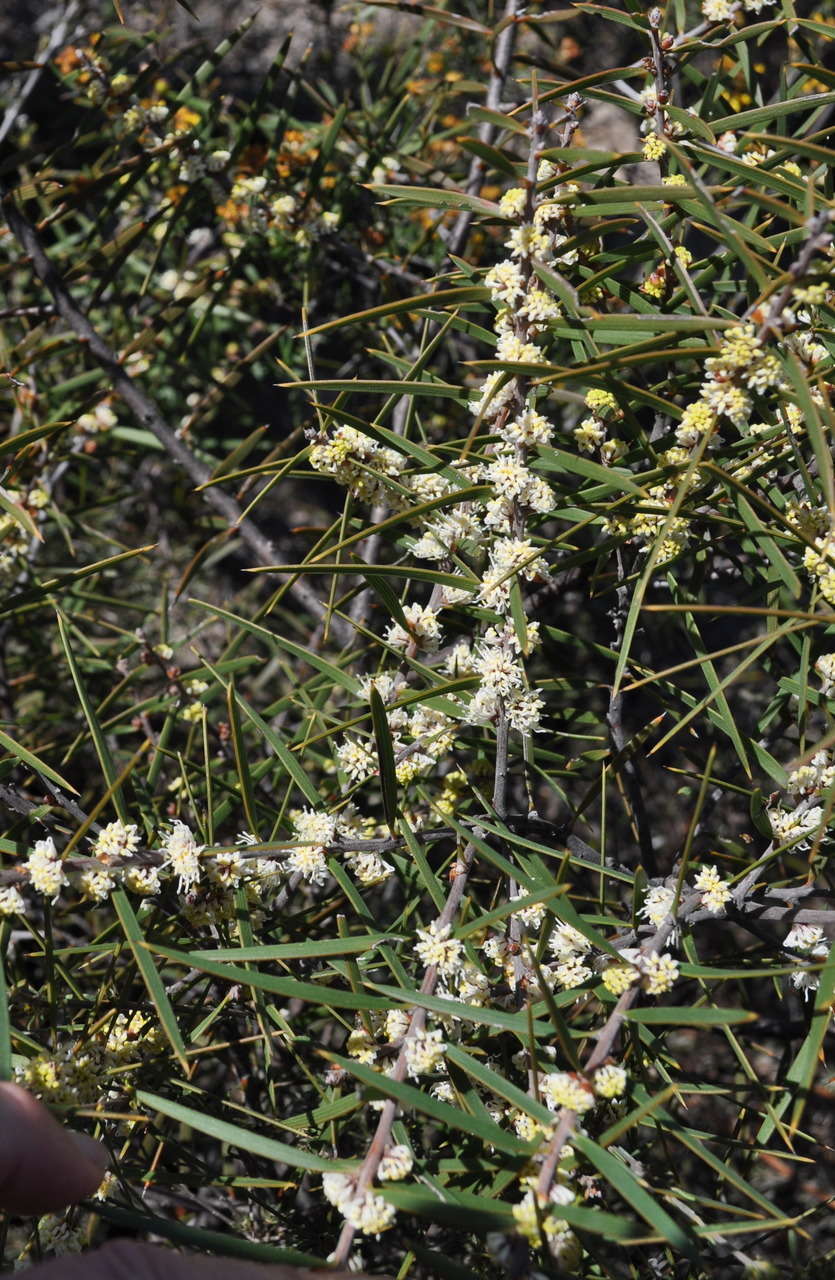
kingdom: Plantae
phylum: Tracheophyta
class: Magnoliopsida
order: Proteales
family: Proteaceae
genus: Hakea
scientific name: Hakea repullulans
